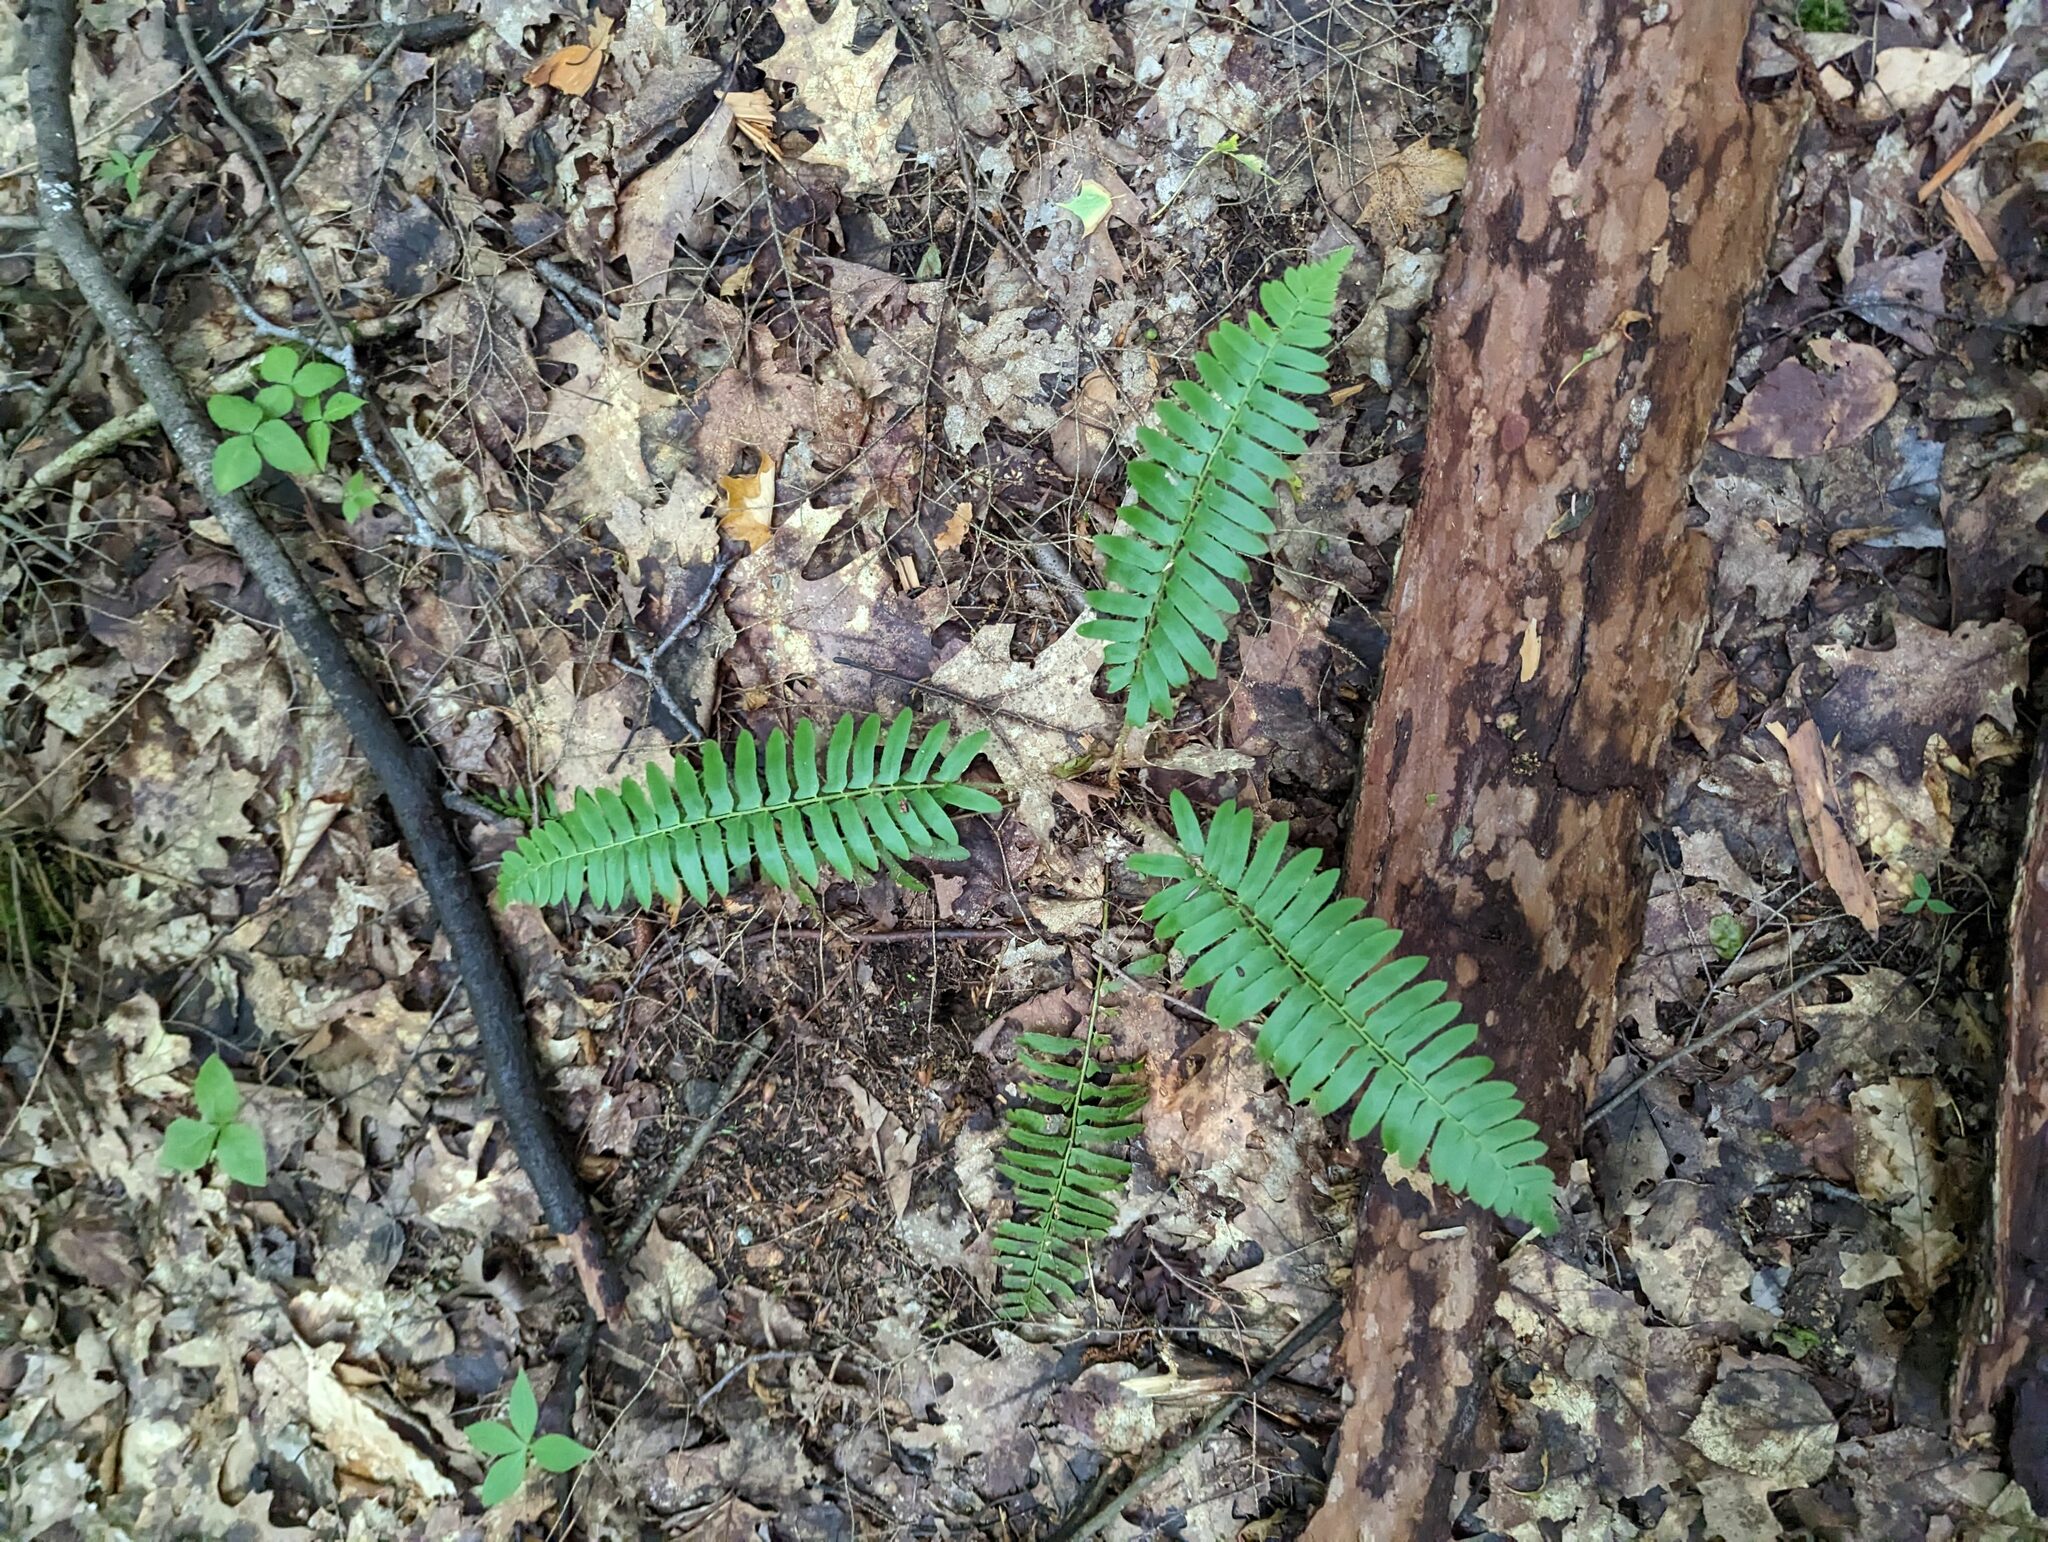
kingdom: Plantae
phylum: Tracheophyta
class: Polypodiopsida
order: Polypodiales
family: Dryopteridaceae
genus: Polystichum
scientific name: Polystichum acrostichoides
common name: Christmas fern
